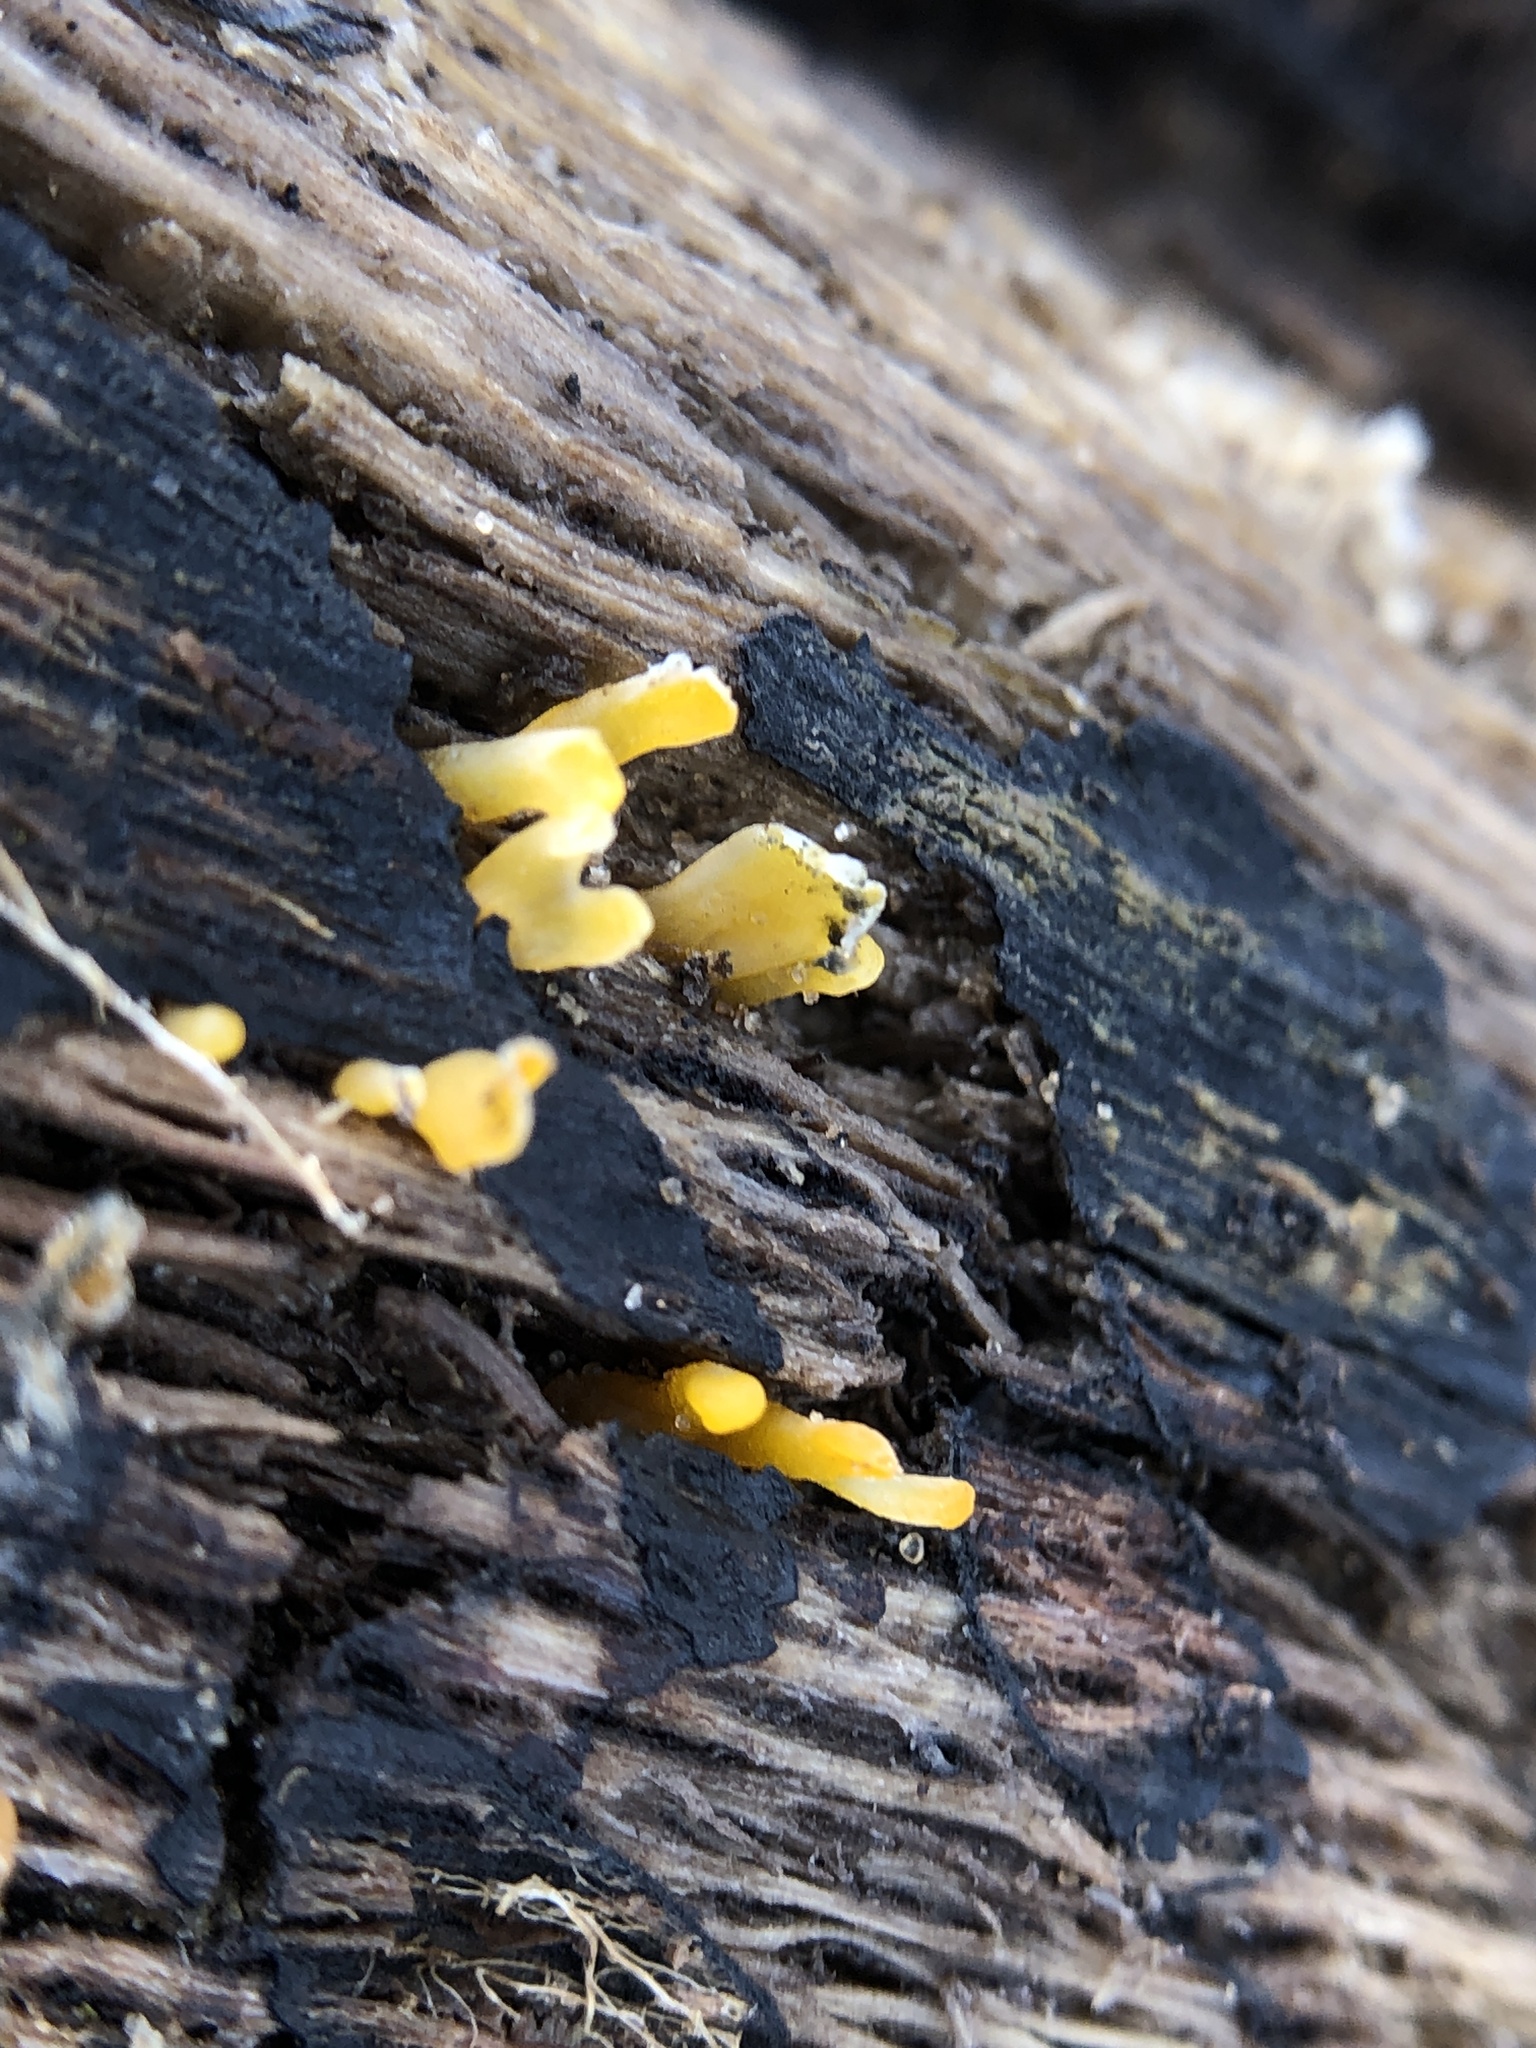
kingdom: Fungi
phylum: Basidiomycota
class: Dacrymycetes
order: Dacrymycetales
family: Dacrymycetaceae
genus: Dacrymyces
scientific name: Dacrymyces spathularius
